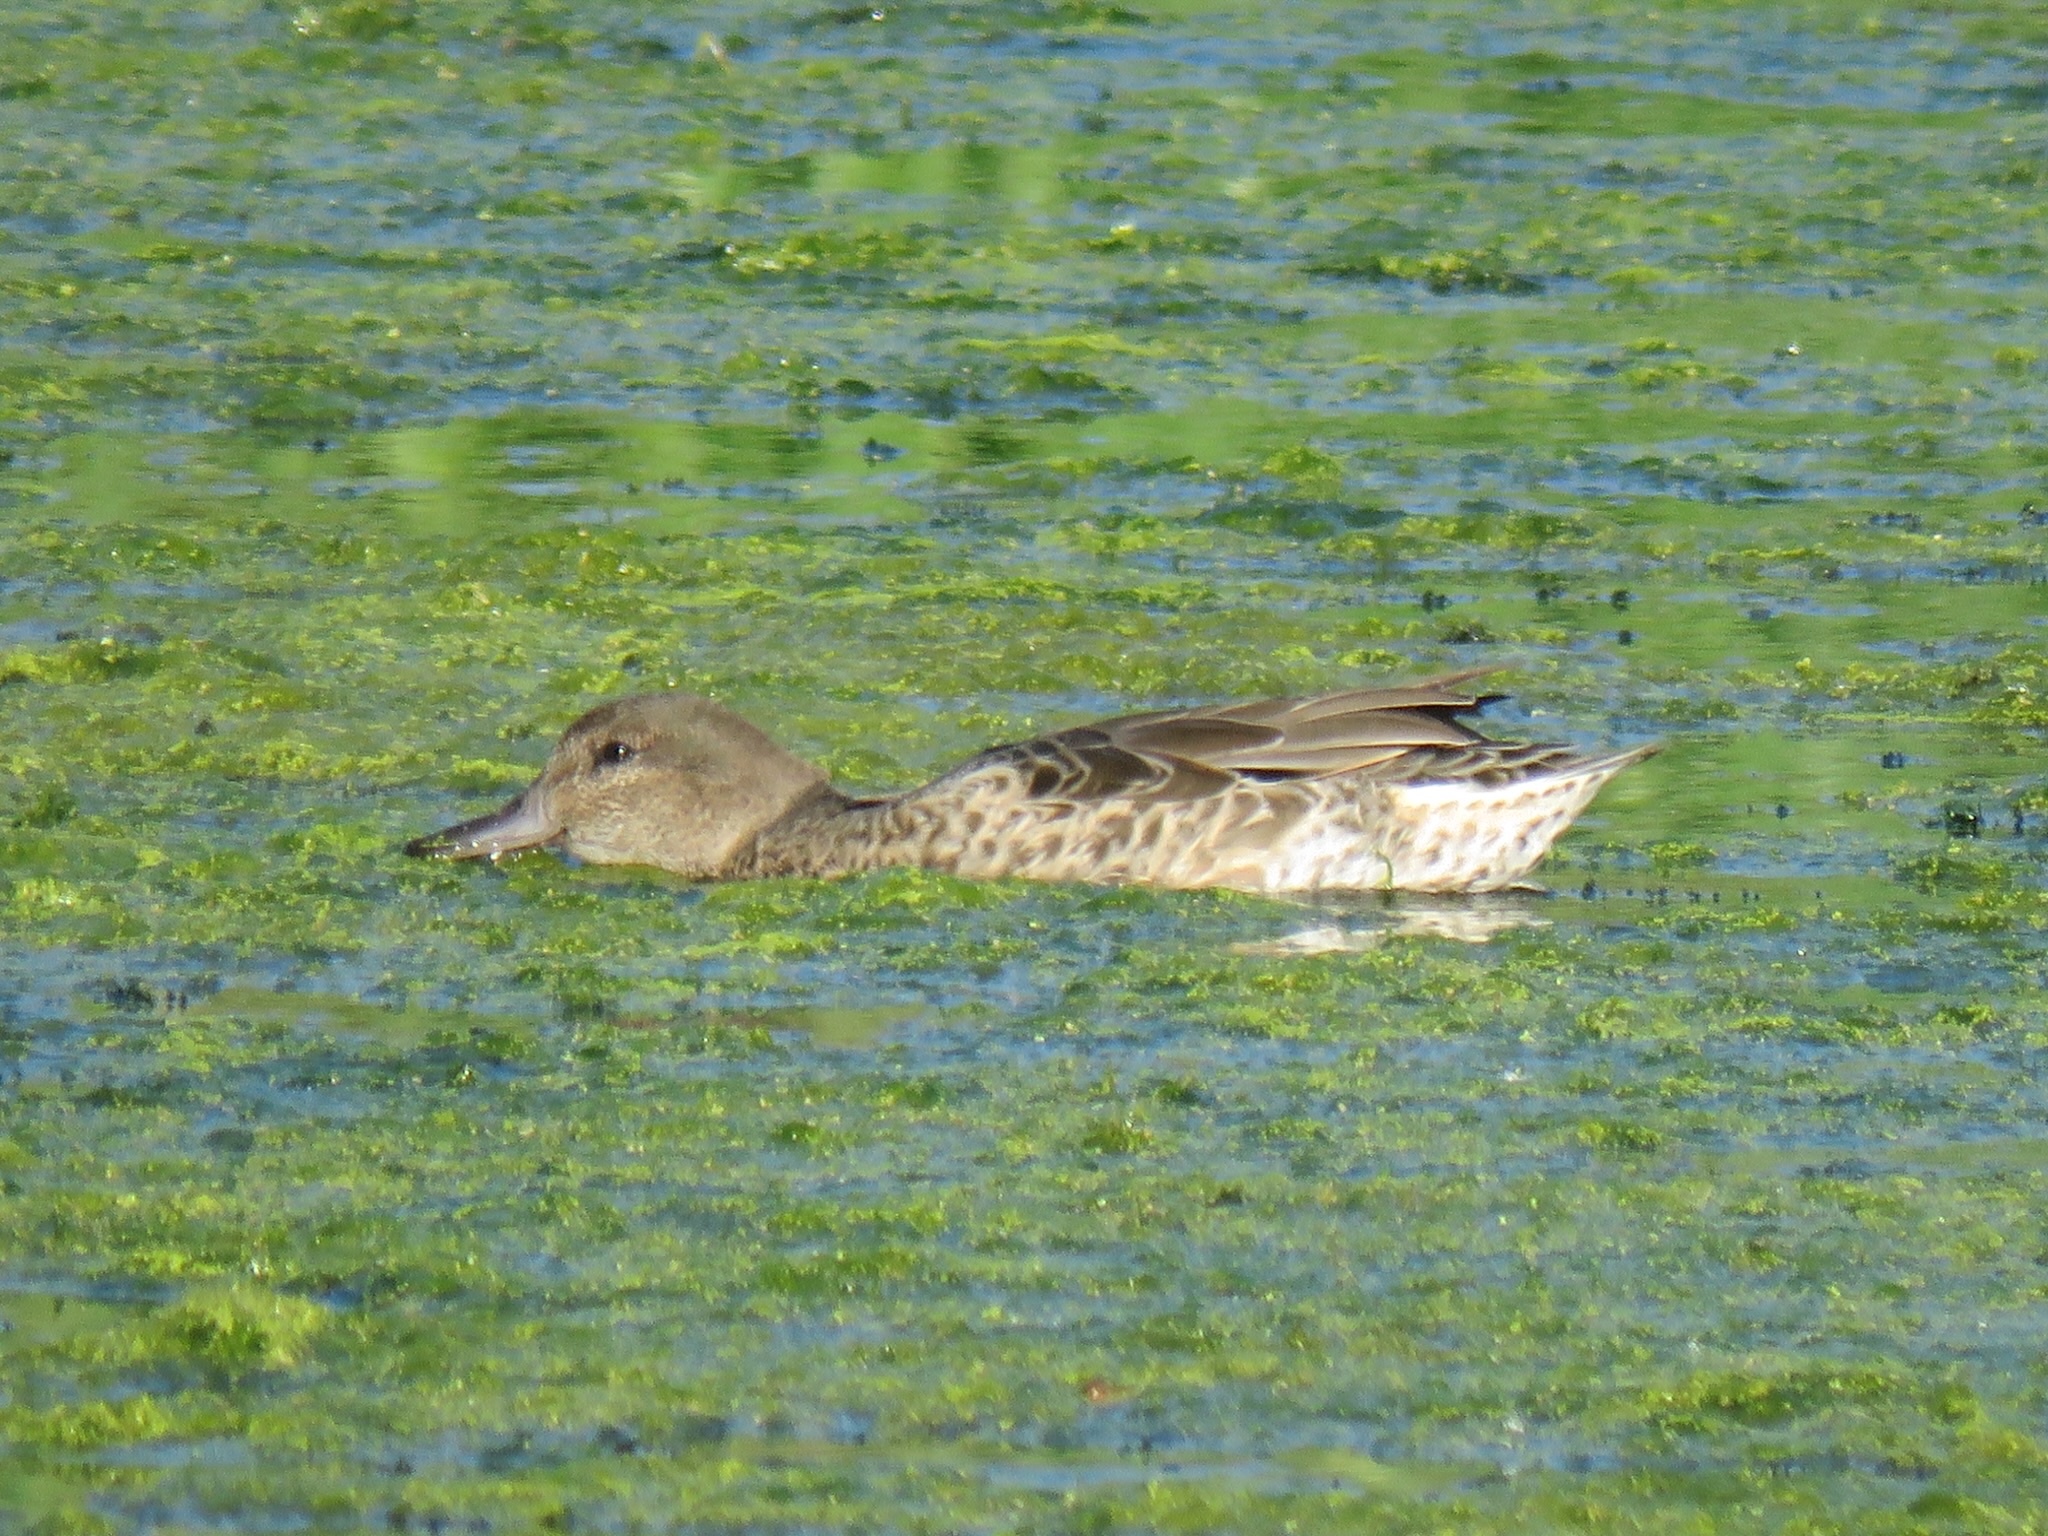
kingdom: Animalia
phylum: Chordata
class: Aves
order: Anseriformes
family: Anatidae
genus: Anas
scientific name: Anas crecca
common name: Eurasian teal
